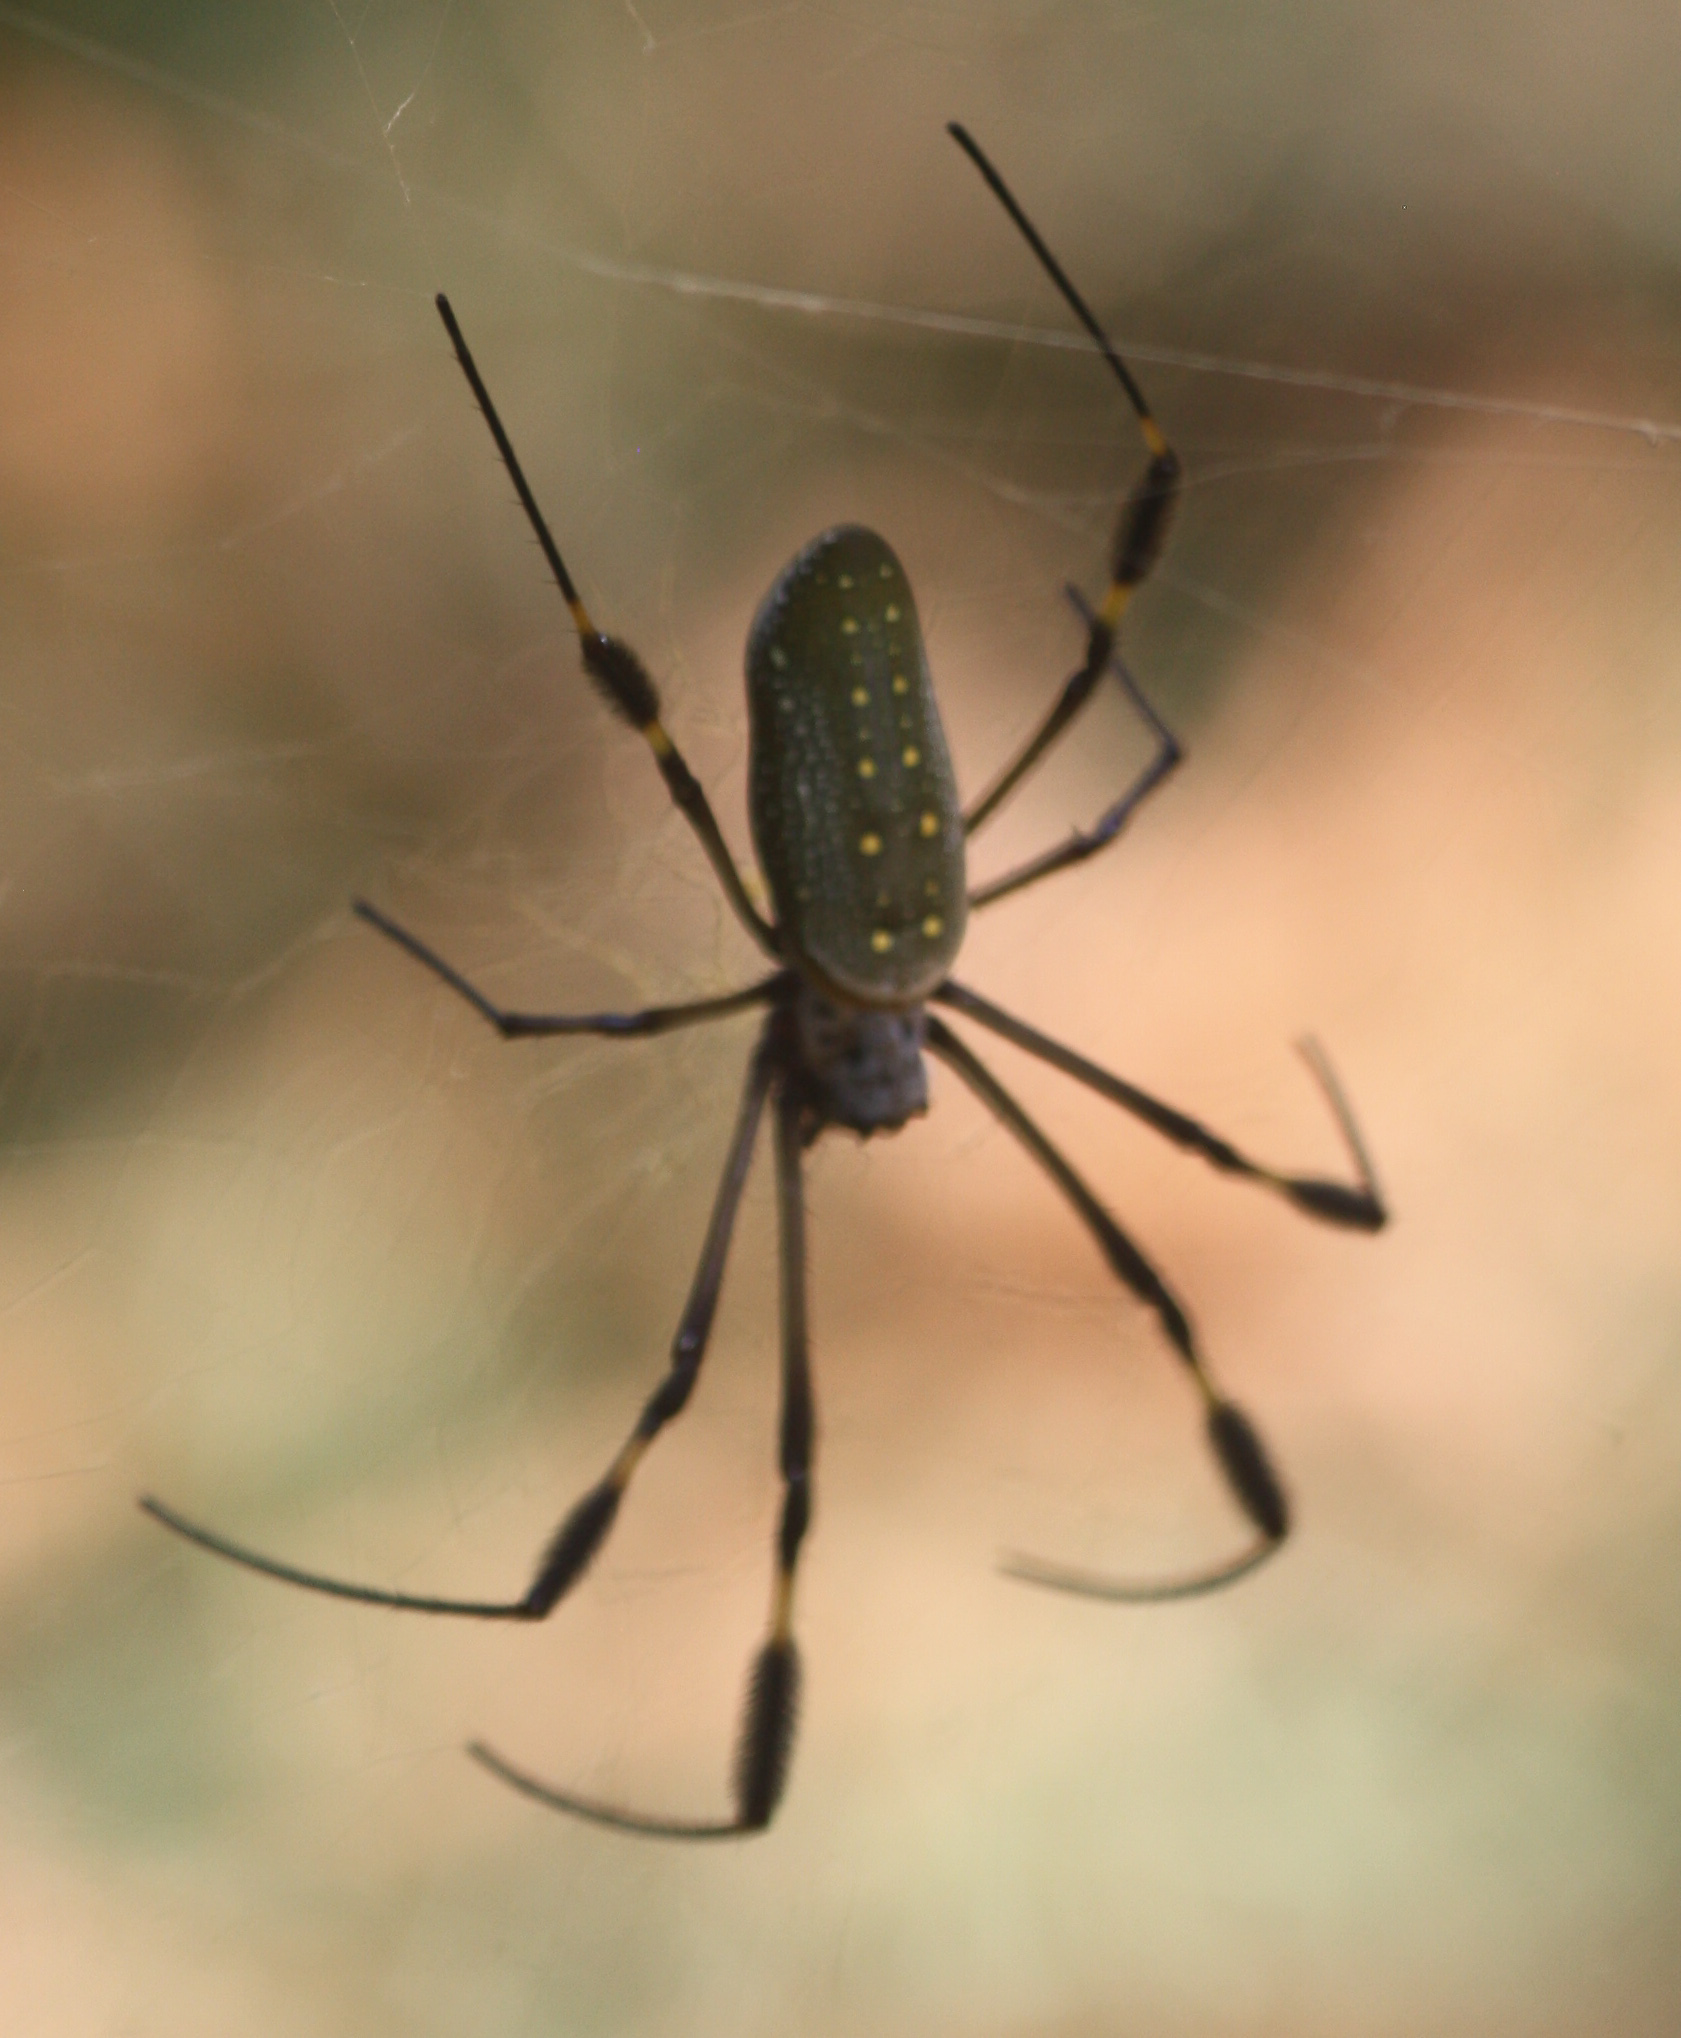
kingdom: Animalia
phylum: Arthropoda
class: Arachnida
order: Araneae
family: Araneidae
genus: Trichonephila
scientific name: Trichonephila clavipes
